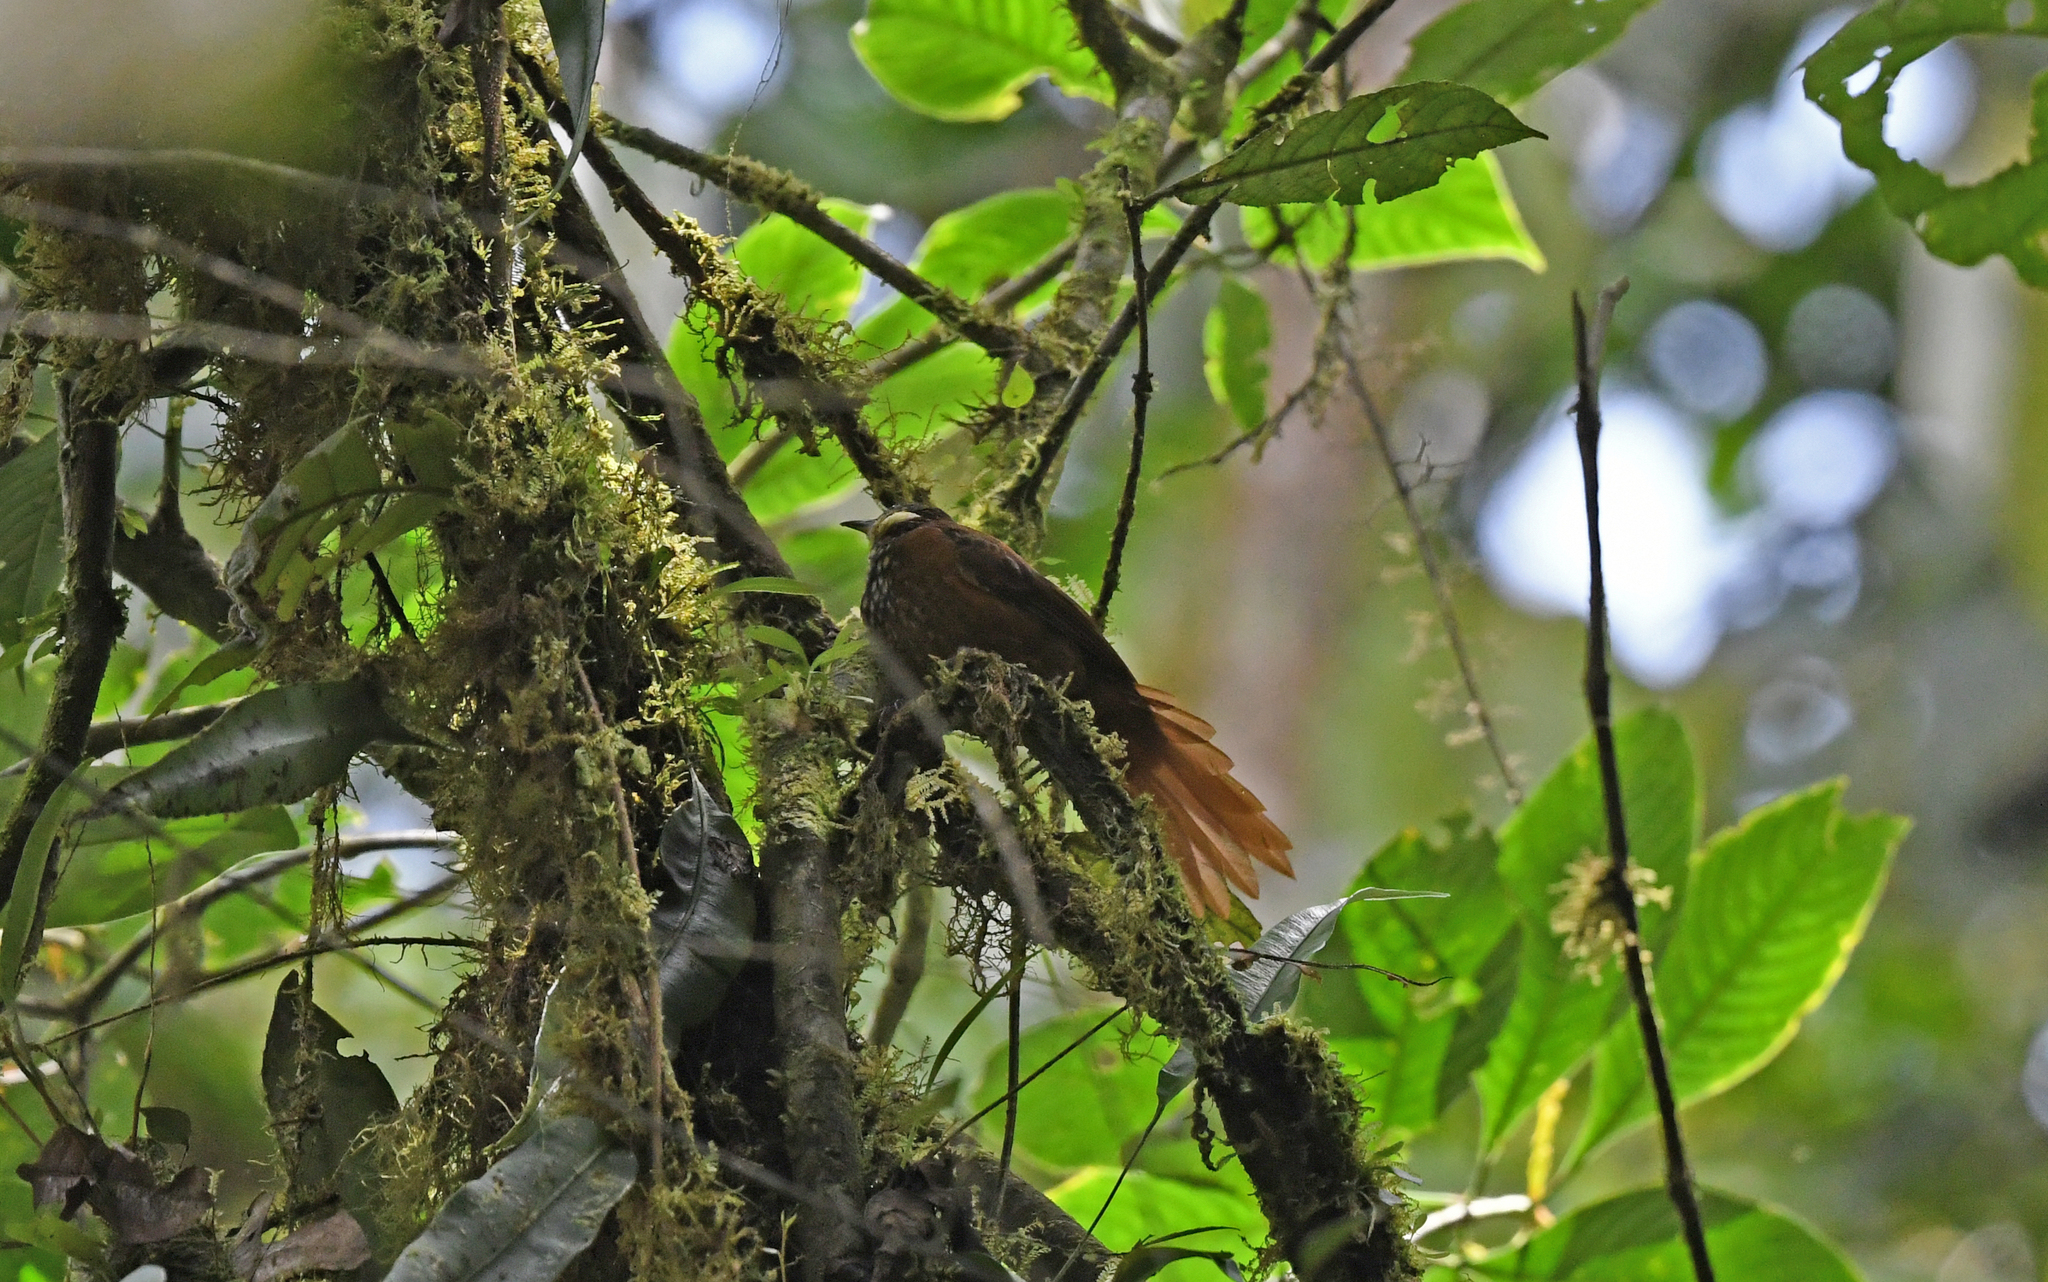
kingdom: Animalia
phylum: Chordata
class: Aves
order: Passeriformes
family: Furnariidae
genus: Pseudocolaptes
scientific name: Pseudocolaptes johnsoni
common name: Pacific tuftedcheek
